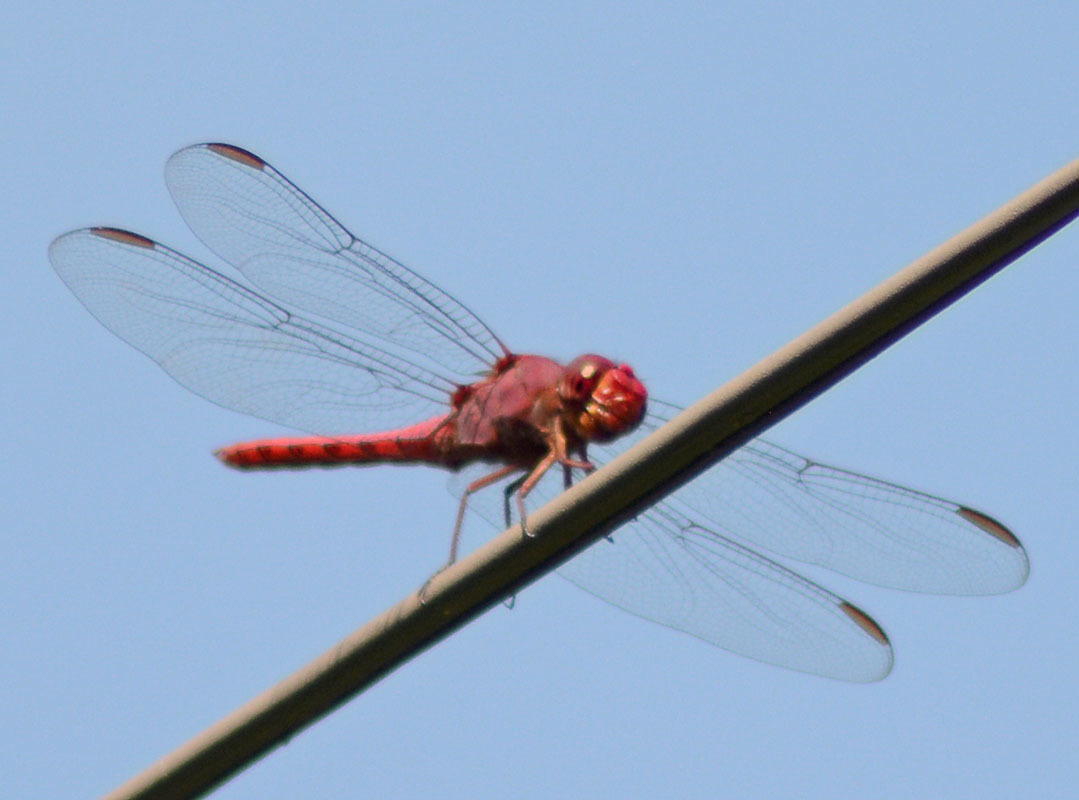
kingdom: Animalia
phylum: Arthropoda
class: Insecta
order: Odonata
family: Libellulidae
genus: Orthemis
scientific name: Orthemis discolor
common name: Carmine skimmer
